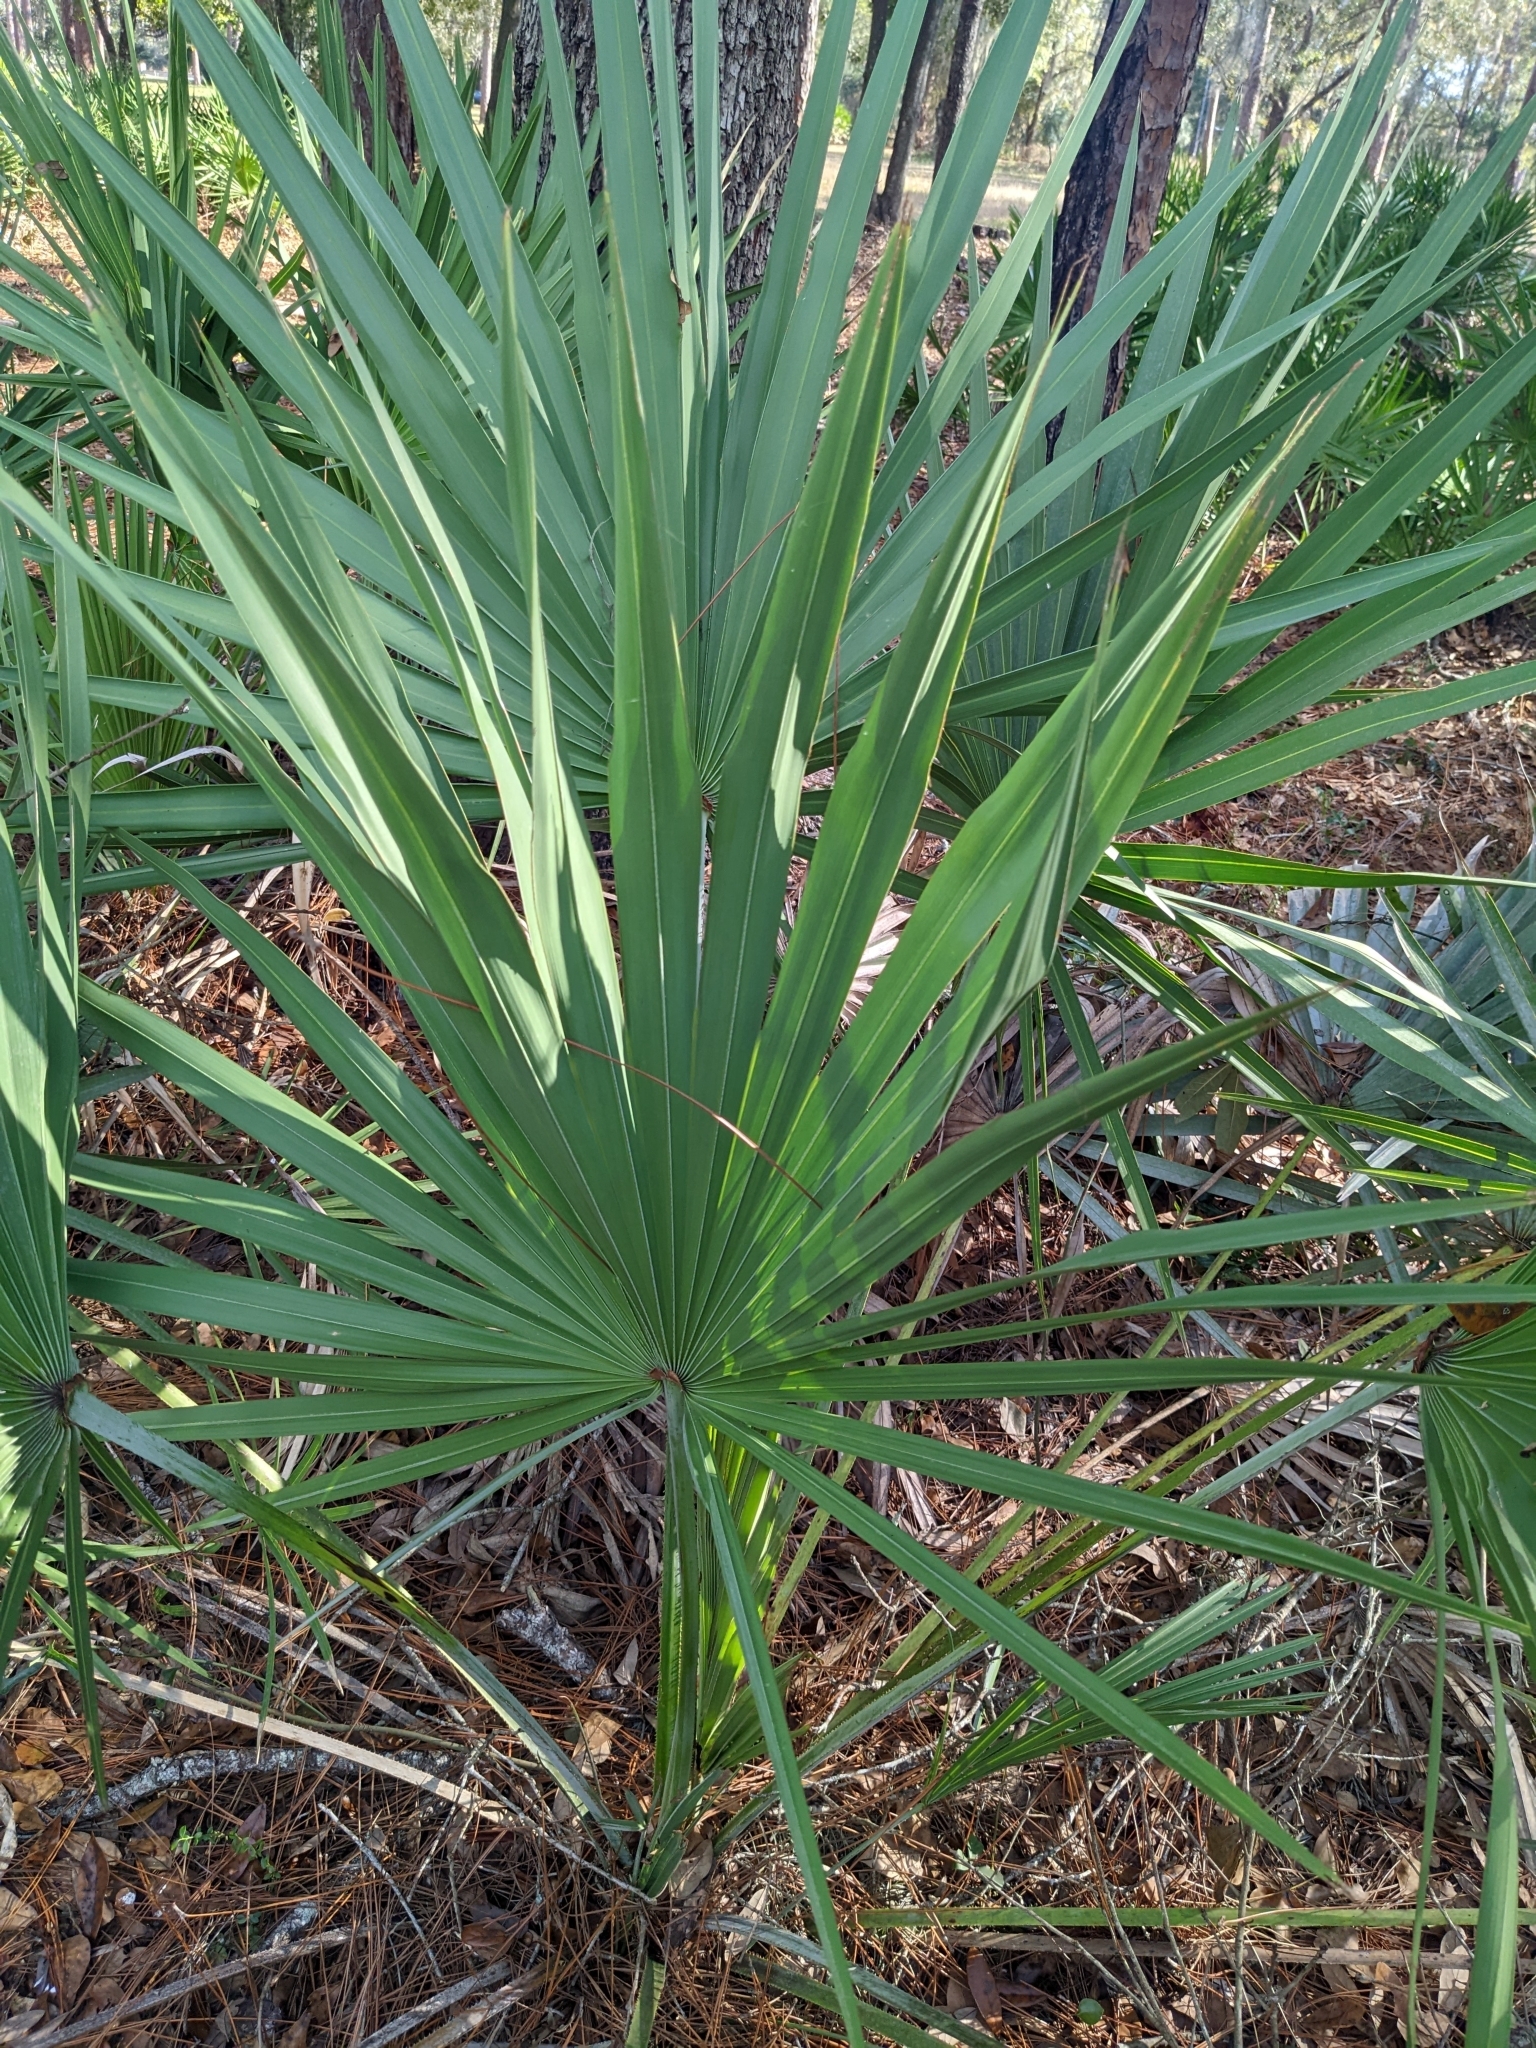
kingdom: Plantae
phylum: Tracheophyta
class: Liliopsida
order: Arecales
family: Arecaceae
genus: Serenoa
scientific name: Serenoa repens
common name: Saw-palmetto
